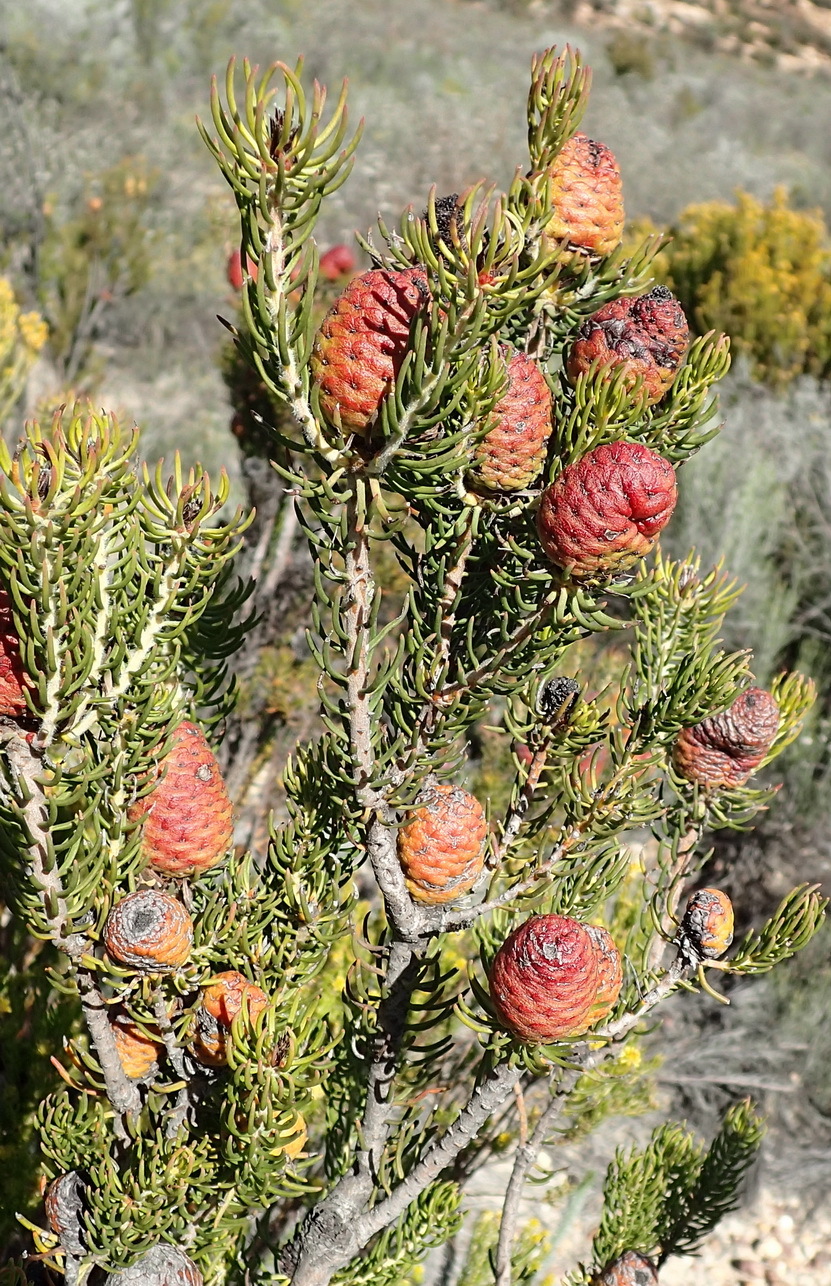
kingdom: Plantae
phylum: Tracheophyta
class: Magnoliopsida
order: Proteales
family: Proteaceae
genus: Leucadendron
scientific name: Leucadendron teretifolium
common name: Needle-leaf conebush
